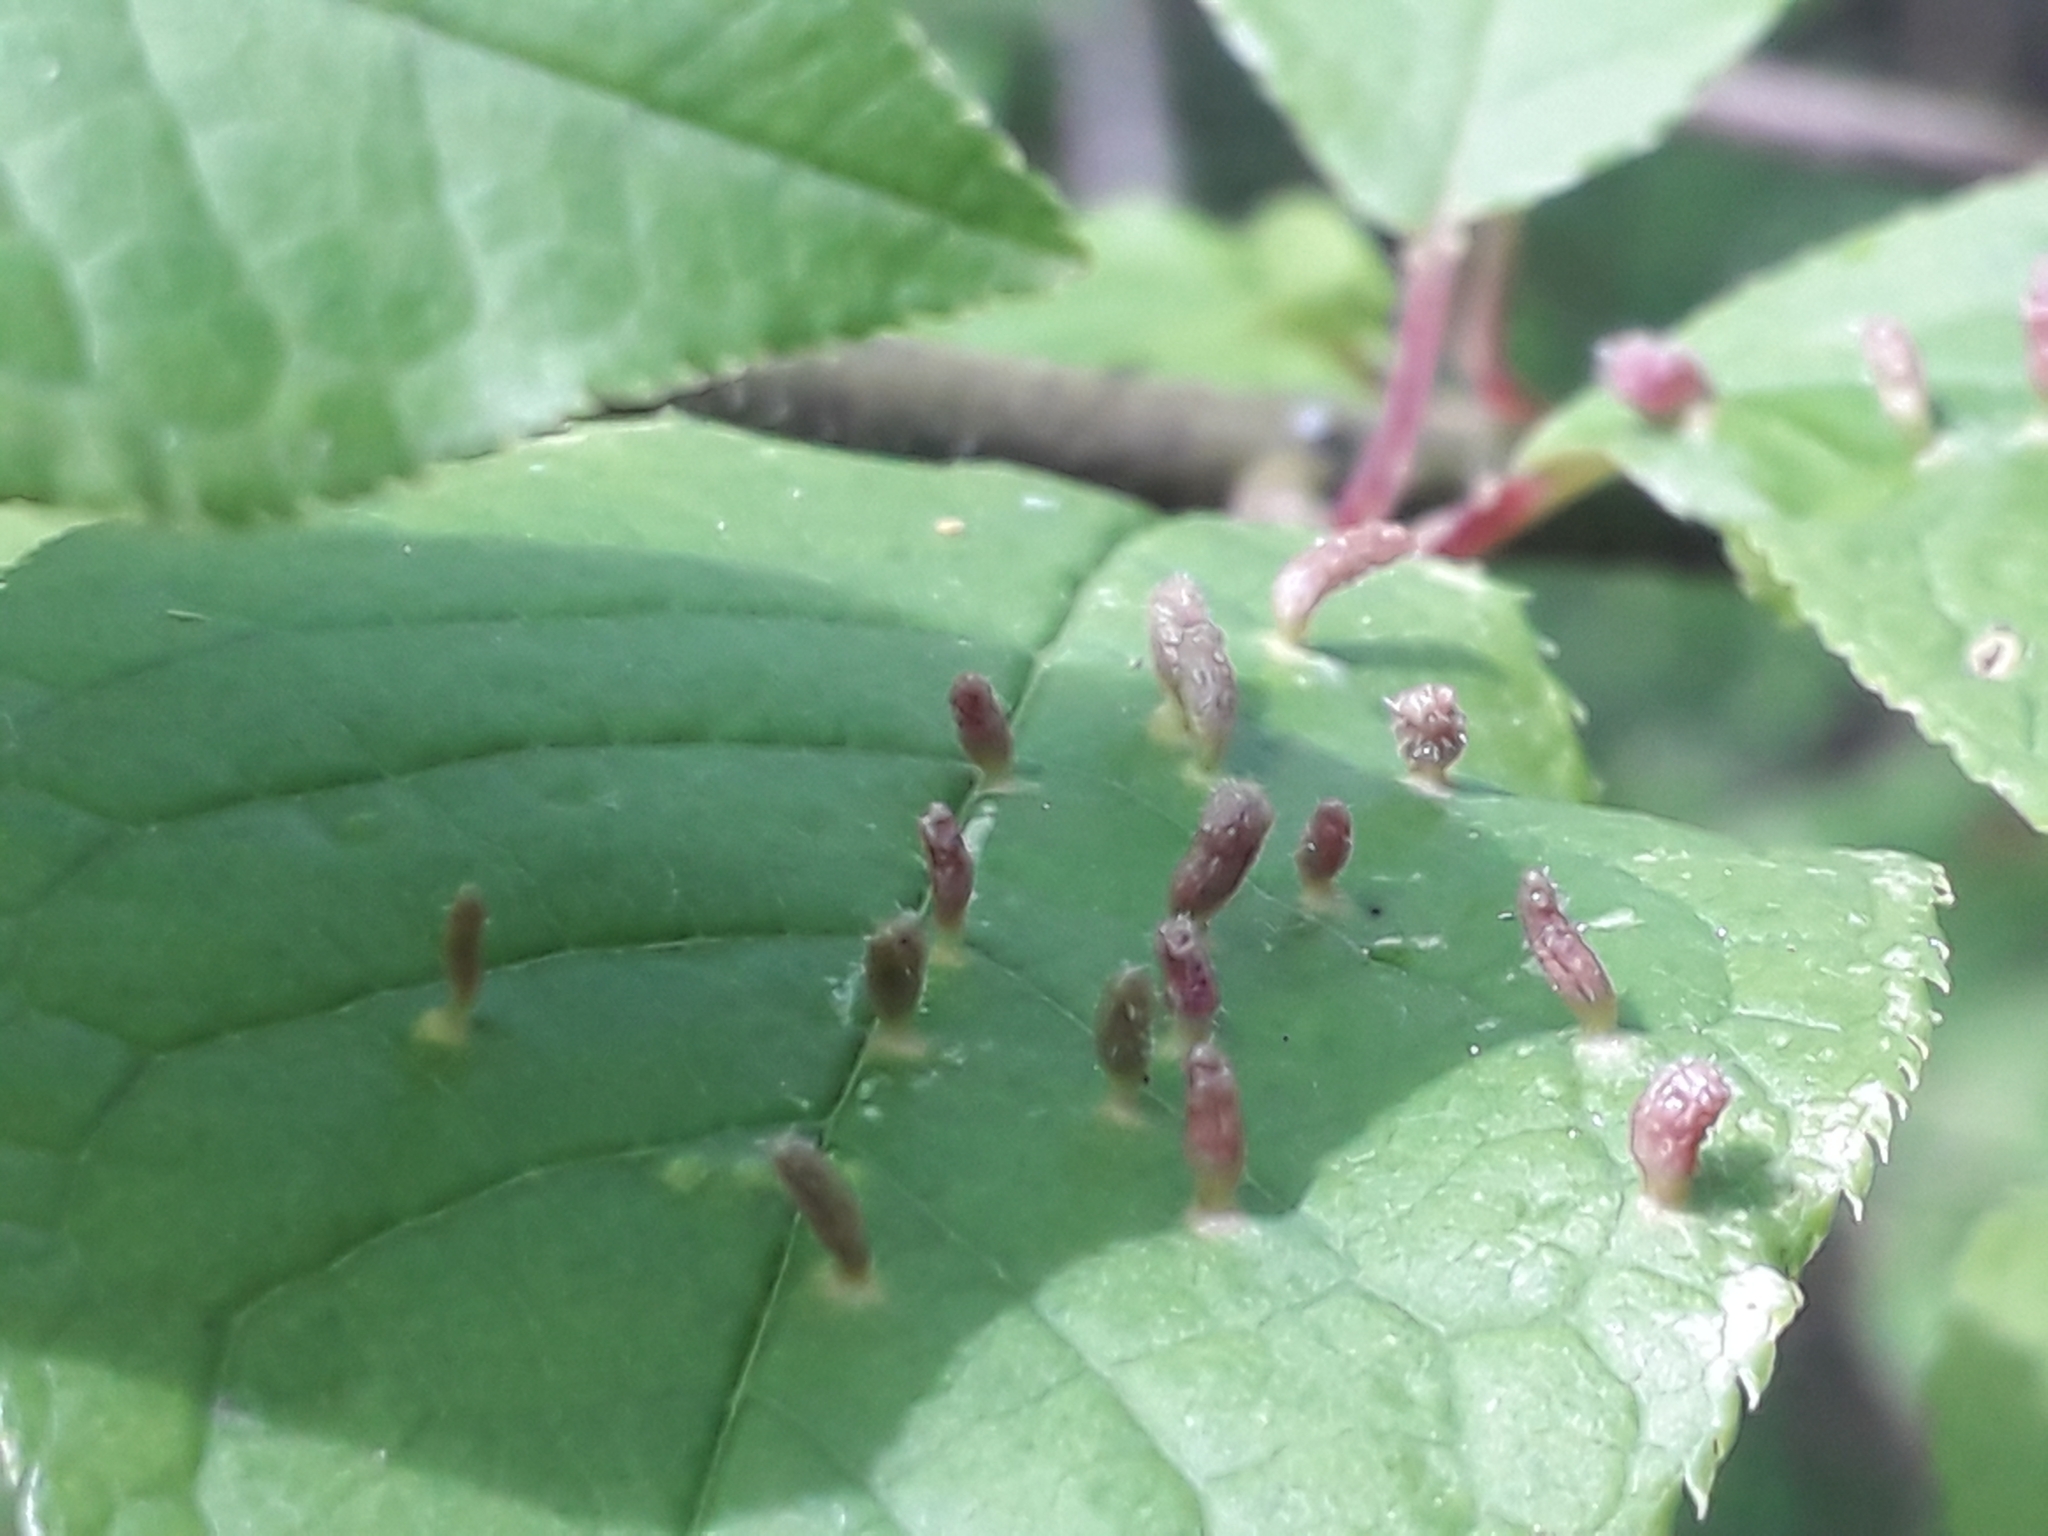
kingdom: Animalia
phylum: Arthropoda
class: Arachnida
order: Trombidiformes
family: Eriophyidae
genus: Phyllocoptes
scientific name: Phyllocoptes eupadi
